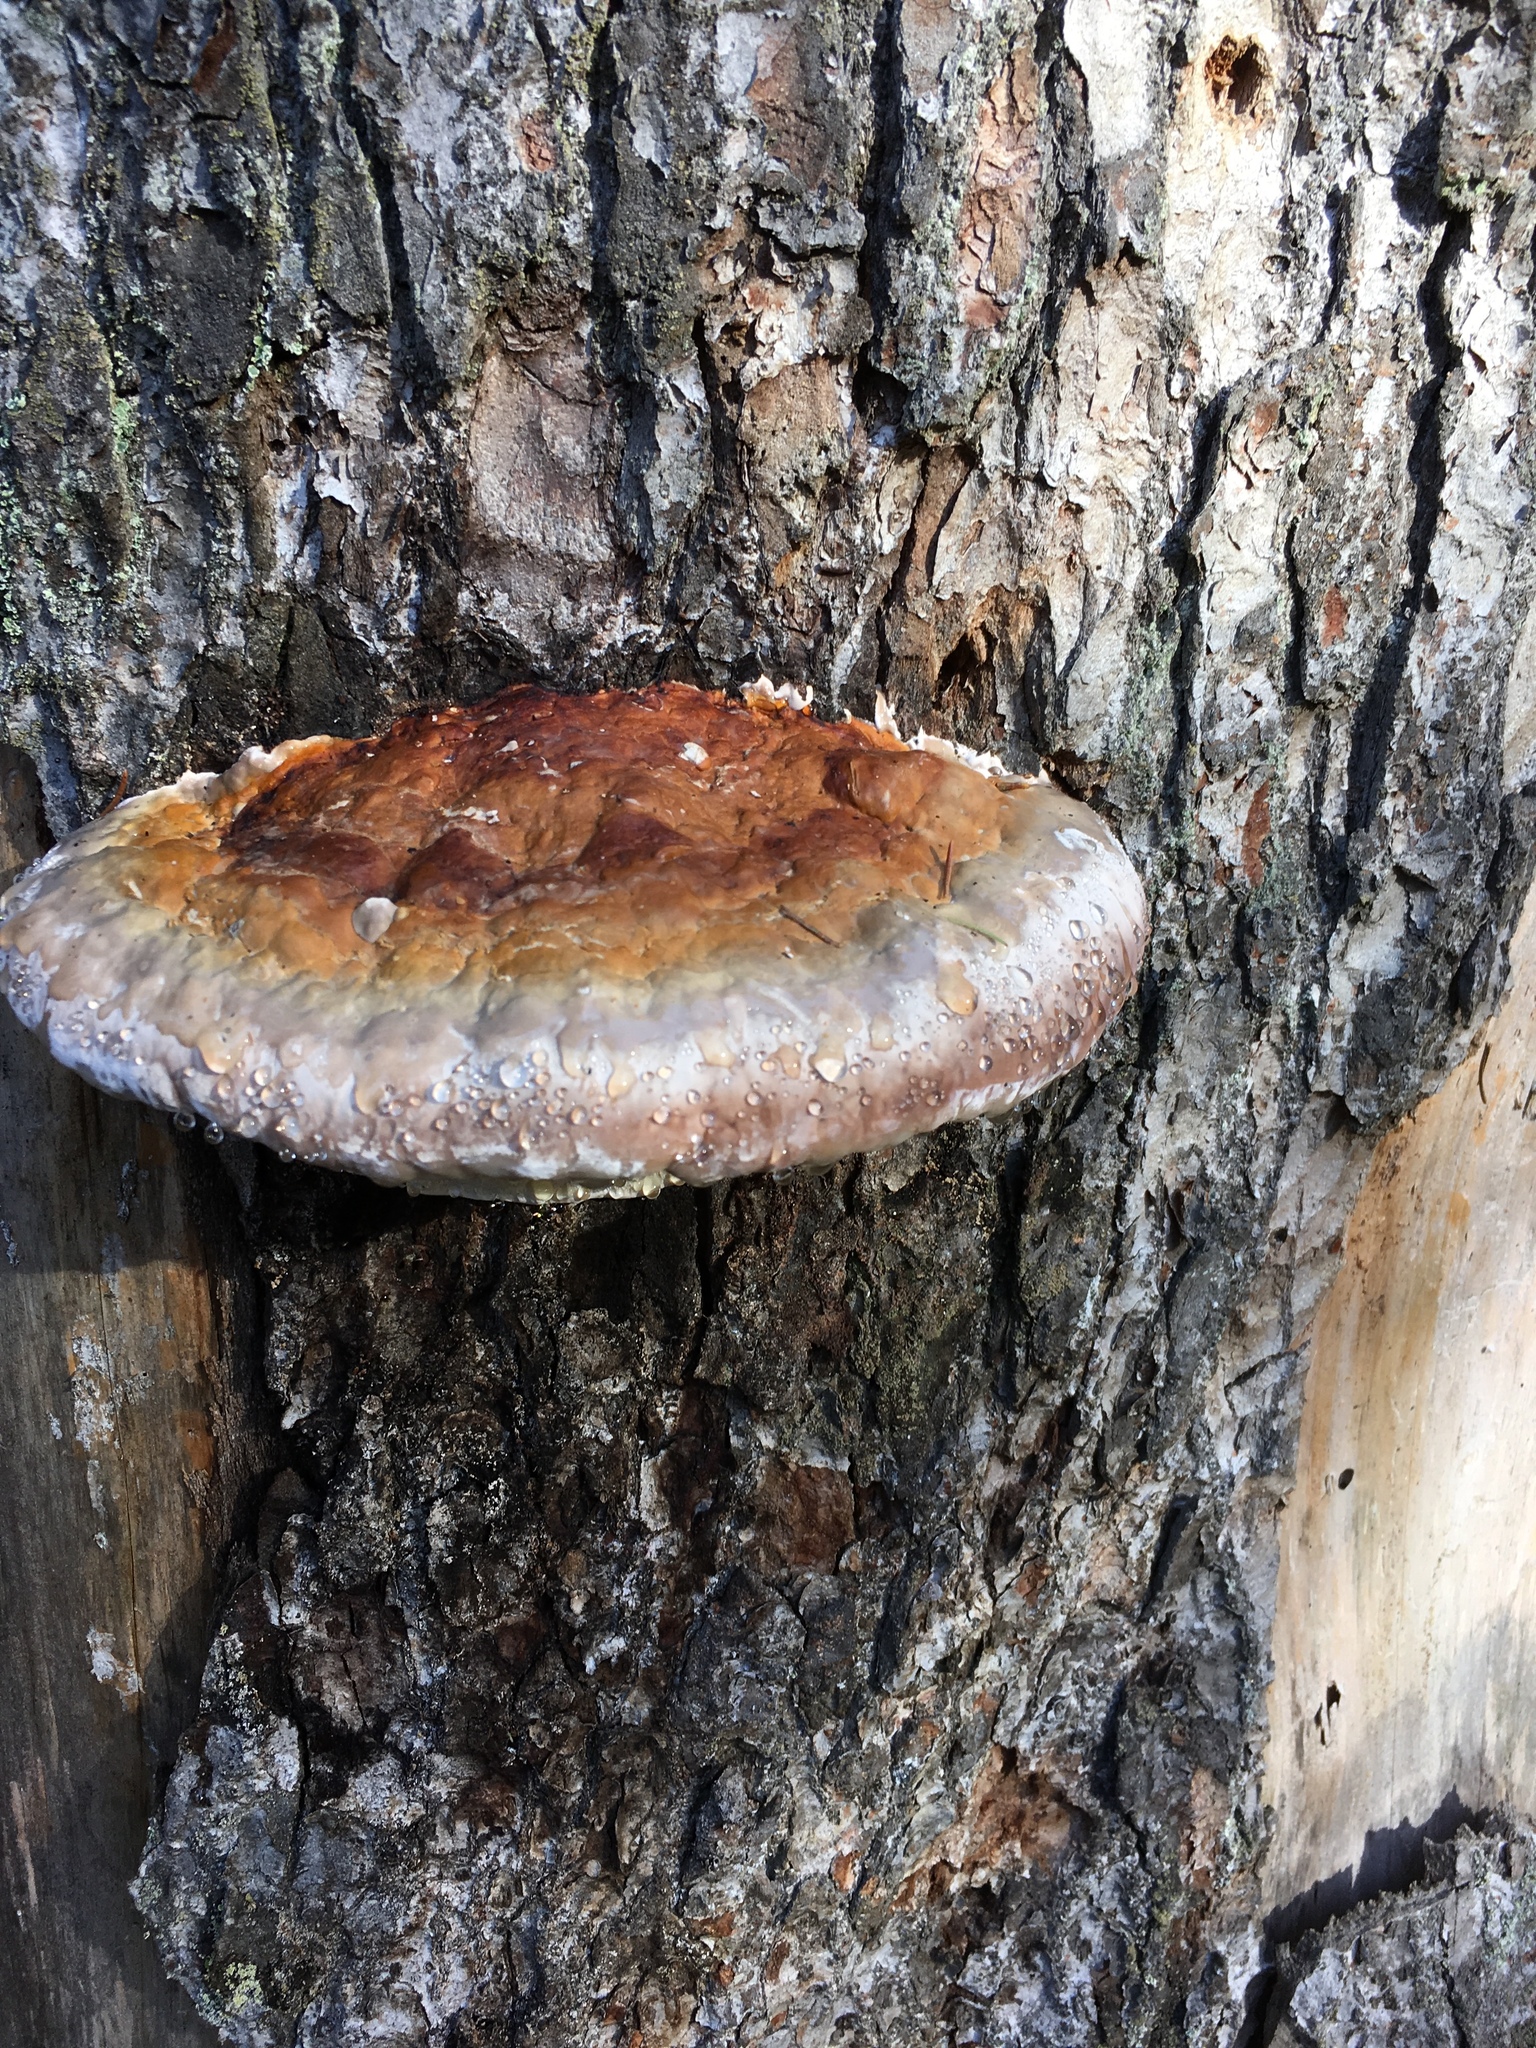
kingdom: Fungi
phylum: Basidiomycota
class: Agaricomycetes
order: Polyporales
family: Fomitopsidaceae
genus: Fomitopsis
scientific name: Fomitopsis pinicola
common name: Red-belted bracket
